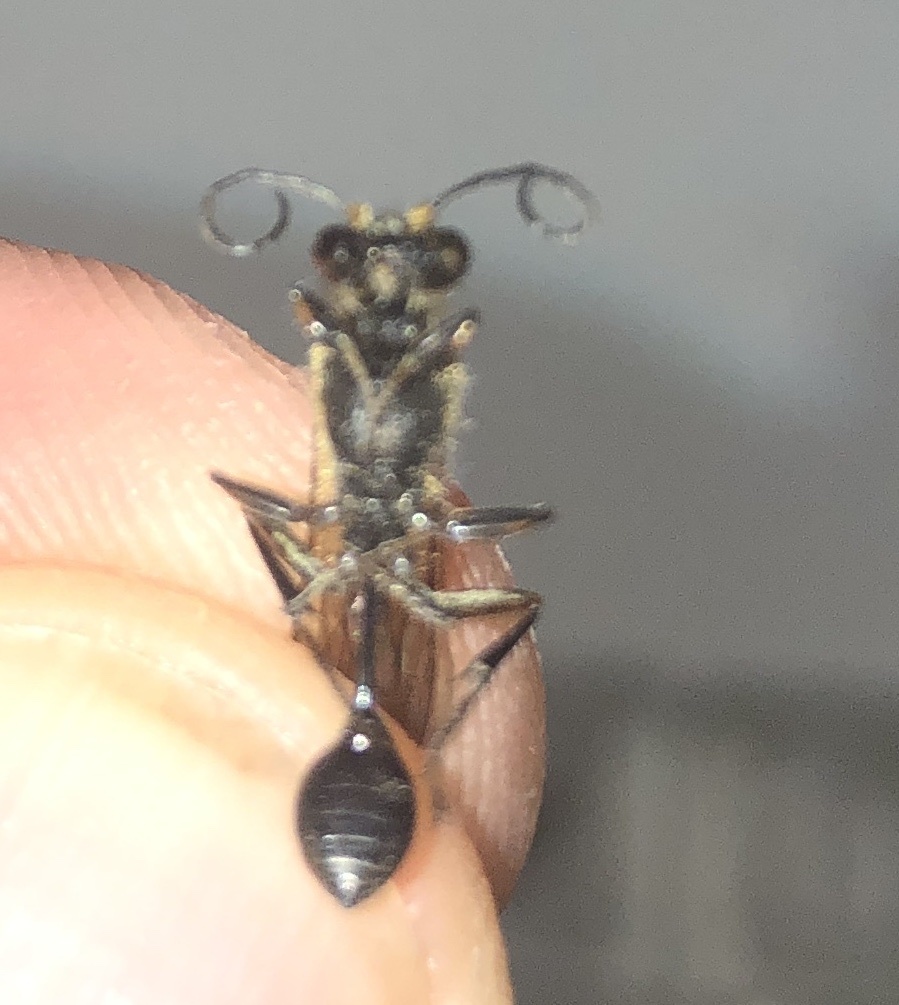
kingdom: Animalia
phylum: Arthropoda
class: Insecta
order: Hymenoptera
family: Sphecidae
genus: Sceliphron
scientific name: Sceliphron curvatum
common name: Pèlopèe
